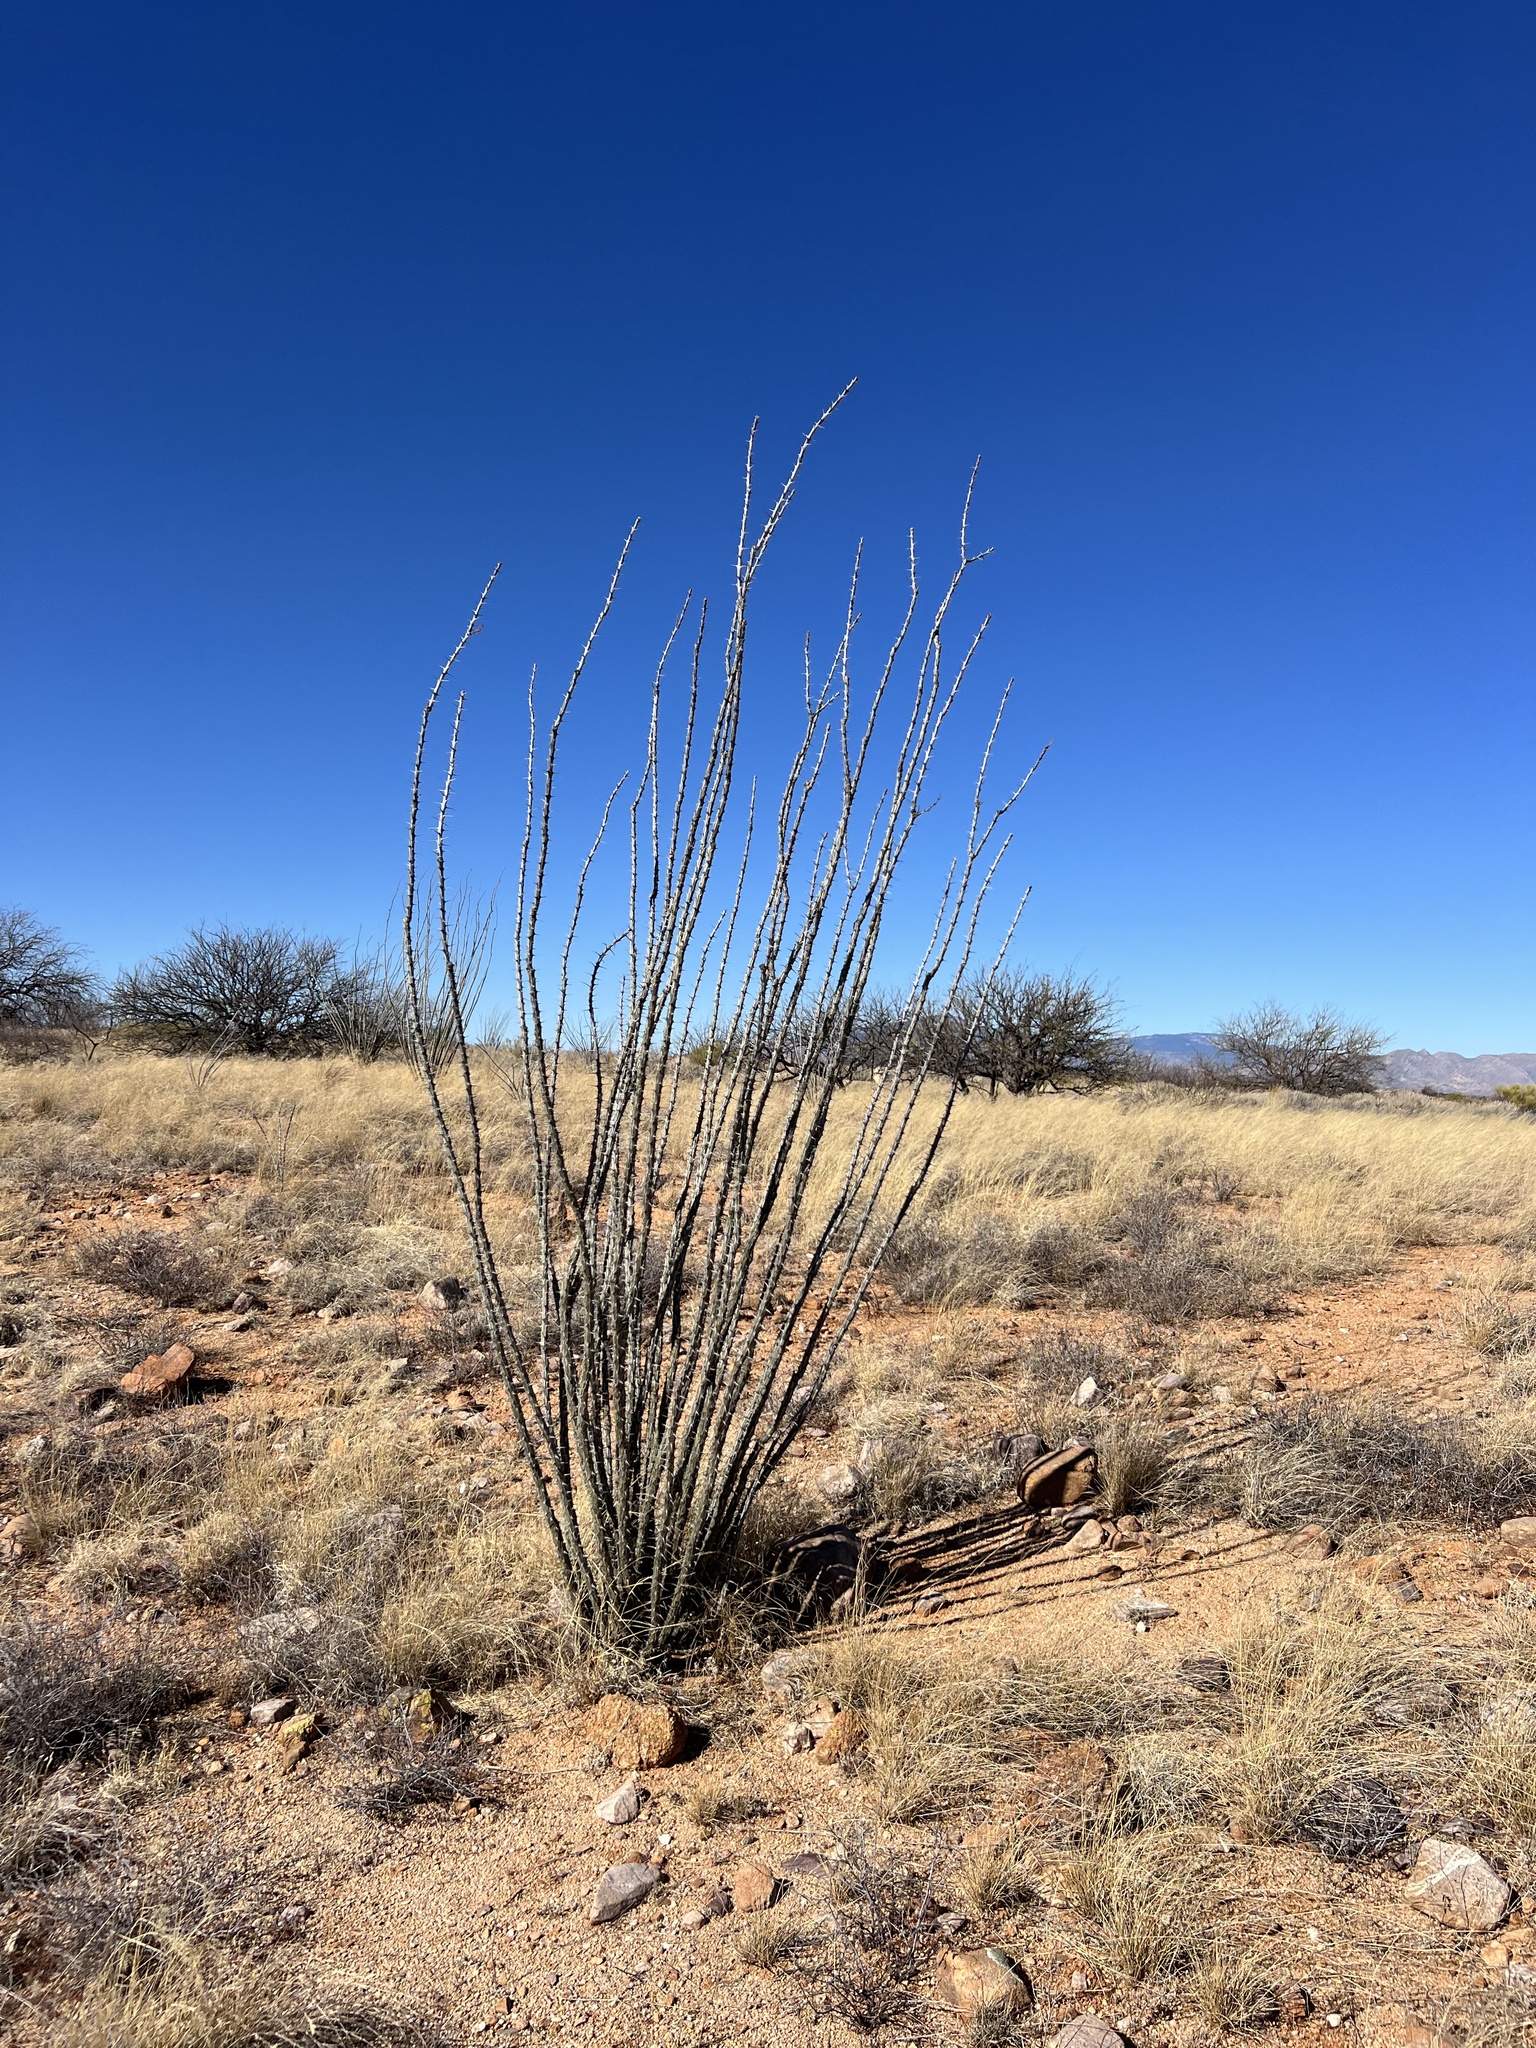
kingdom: Plantae
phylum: Tracheophyta
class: Magnoliopsida
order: Ericales
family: Fouquieriaceae
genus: Fouquieria
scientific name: Fouquieria splendens
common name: Vine-cactus
